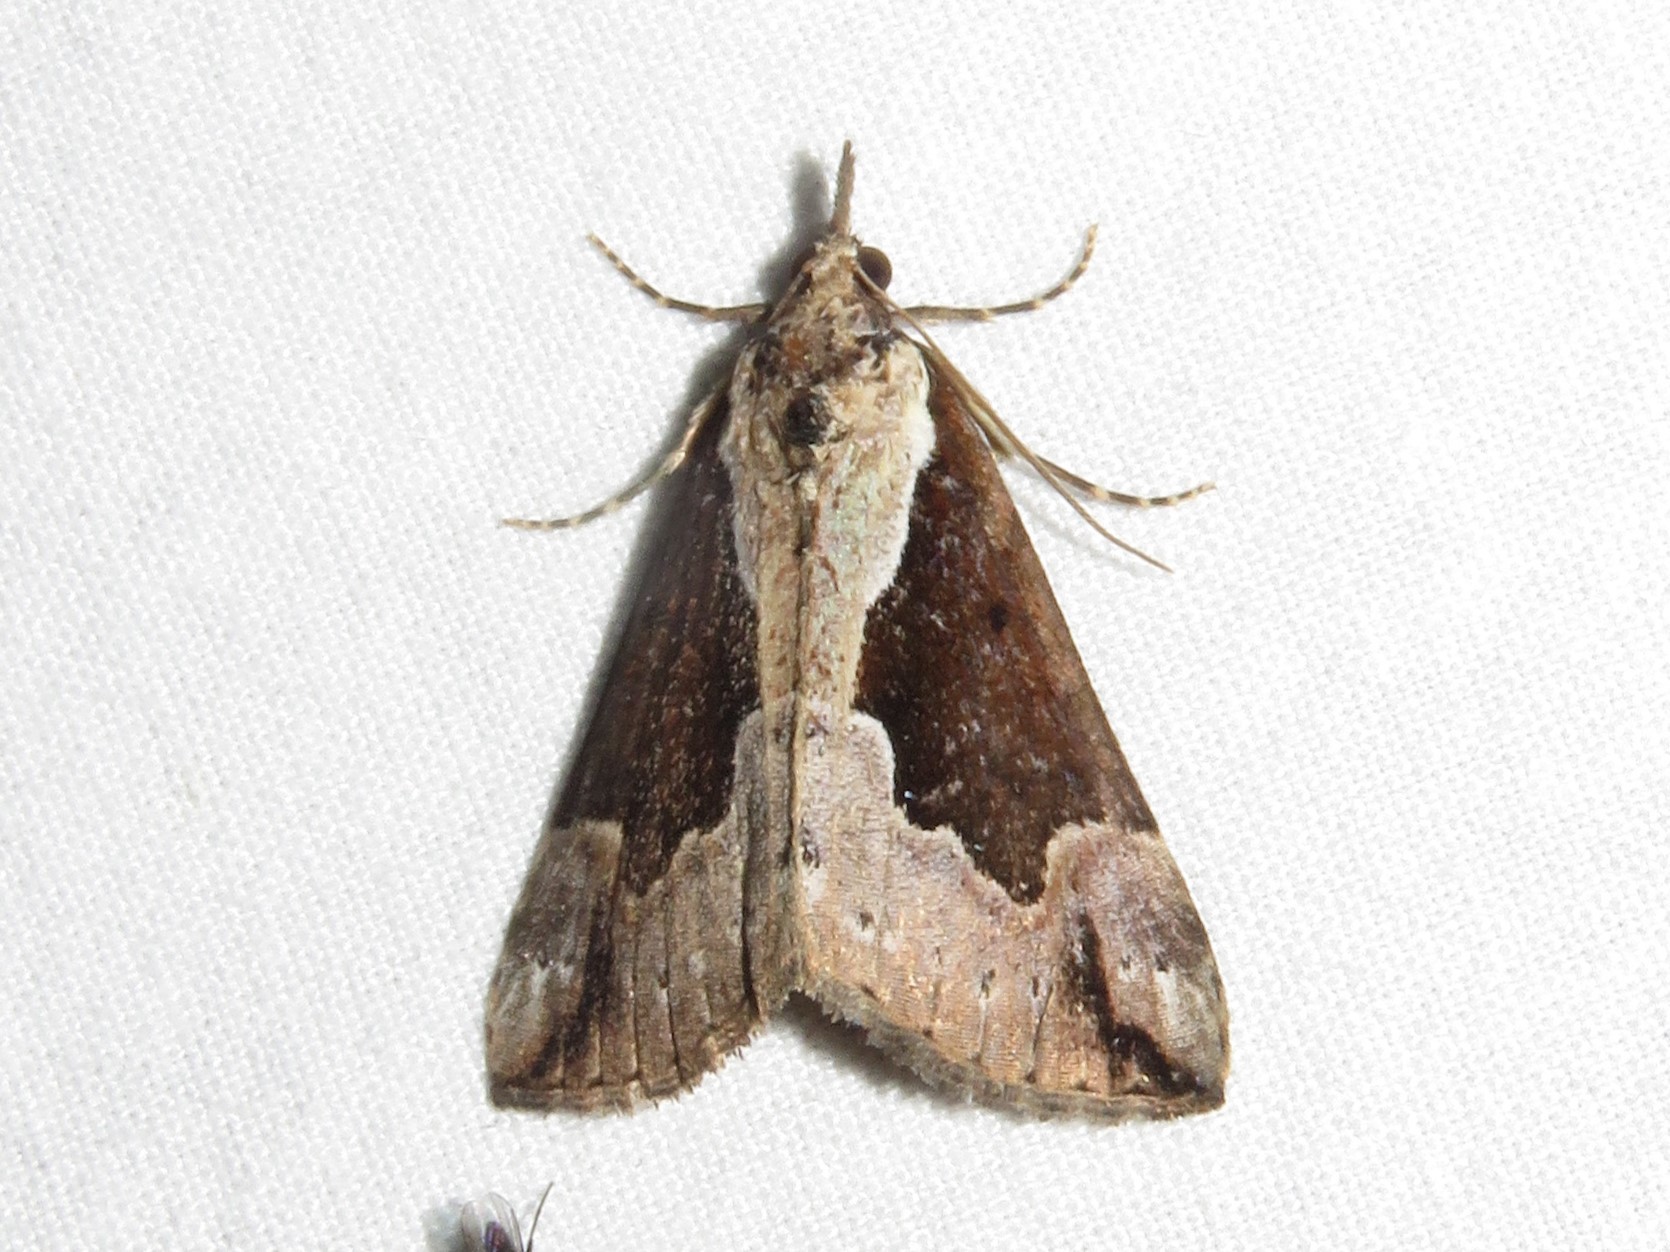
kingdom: Animalia
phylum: Arthropoda
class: Insecta
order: Lepidoptera
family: Erebidae
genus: Hypena
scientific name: Hypena baltimoralis
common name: Baltimore snout
